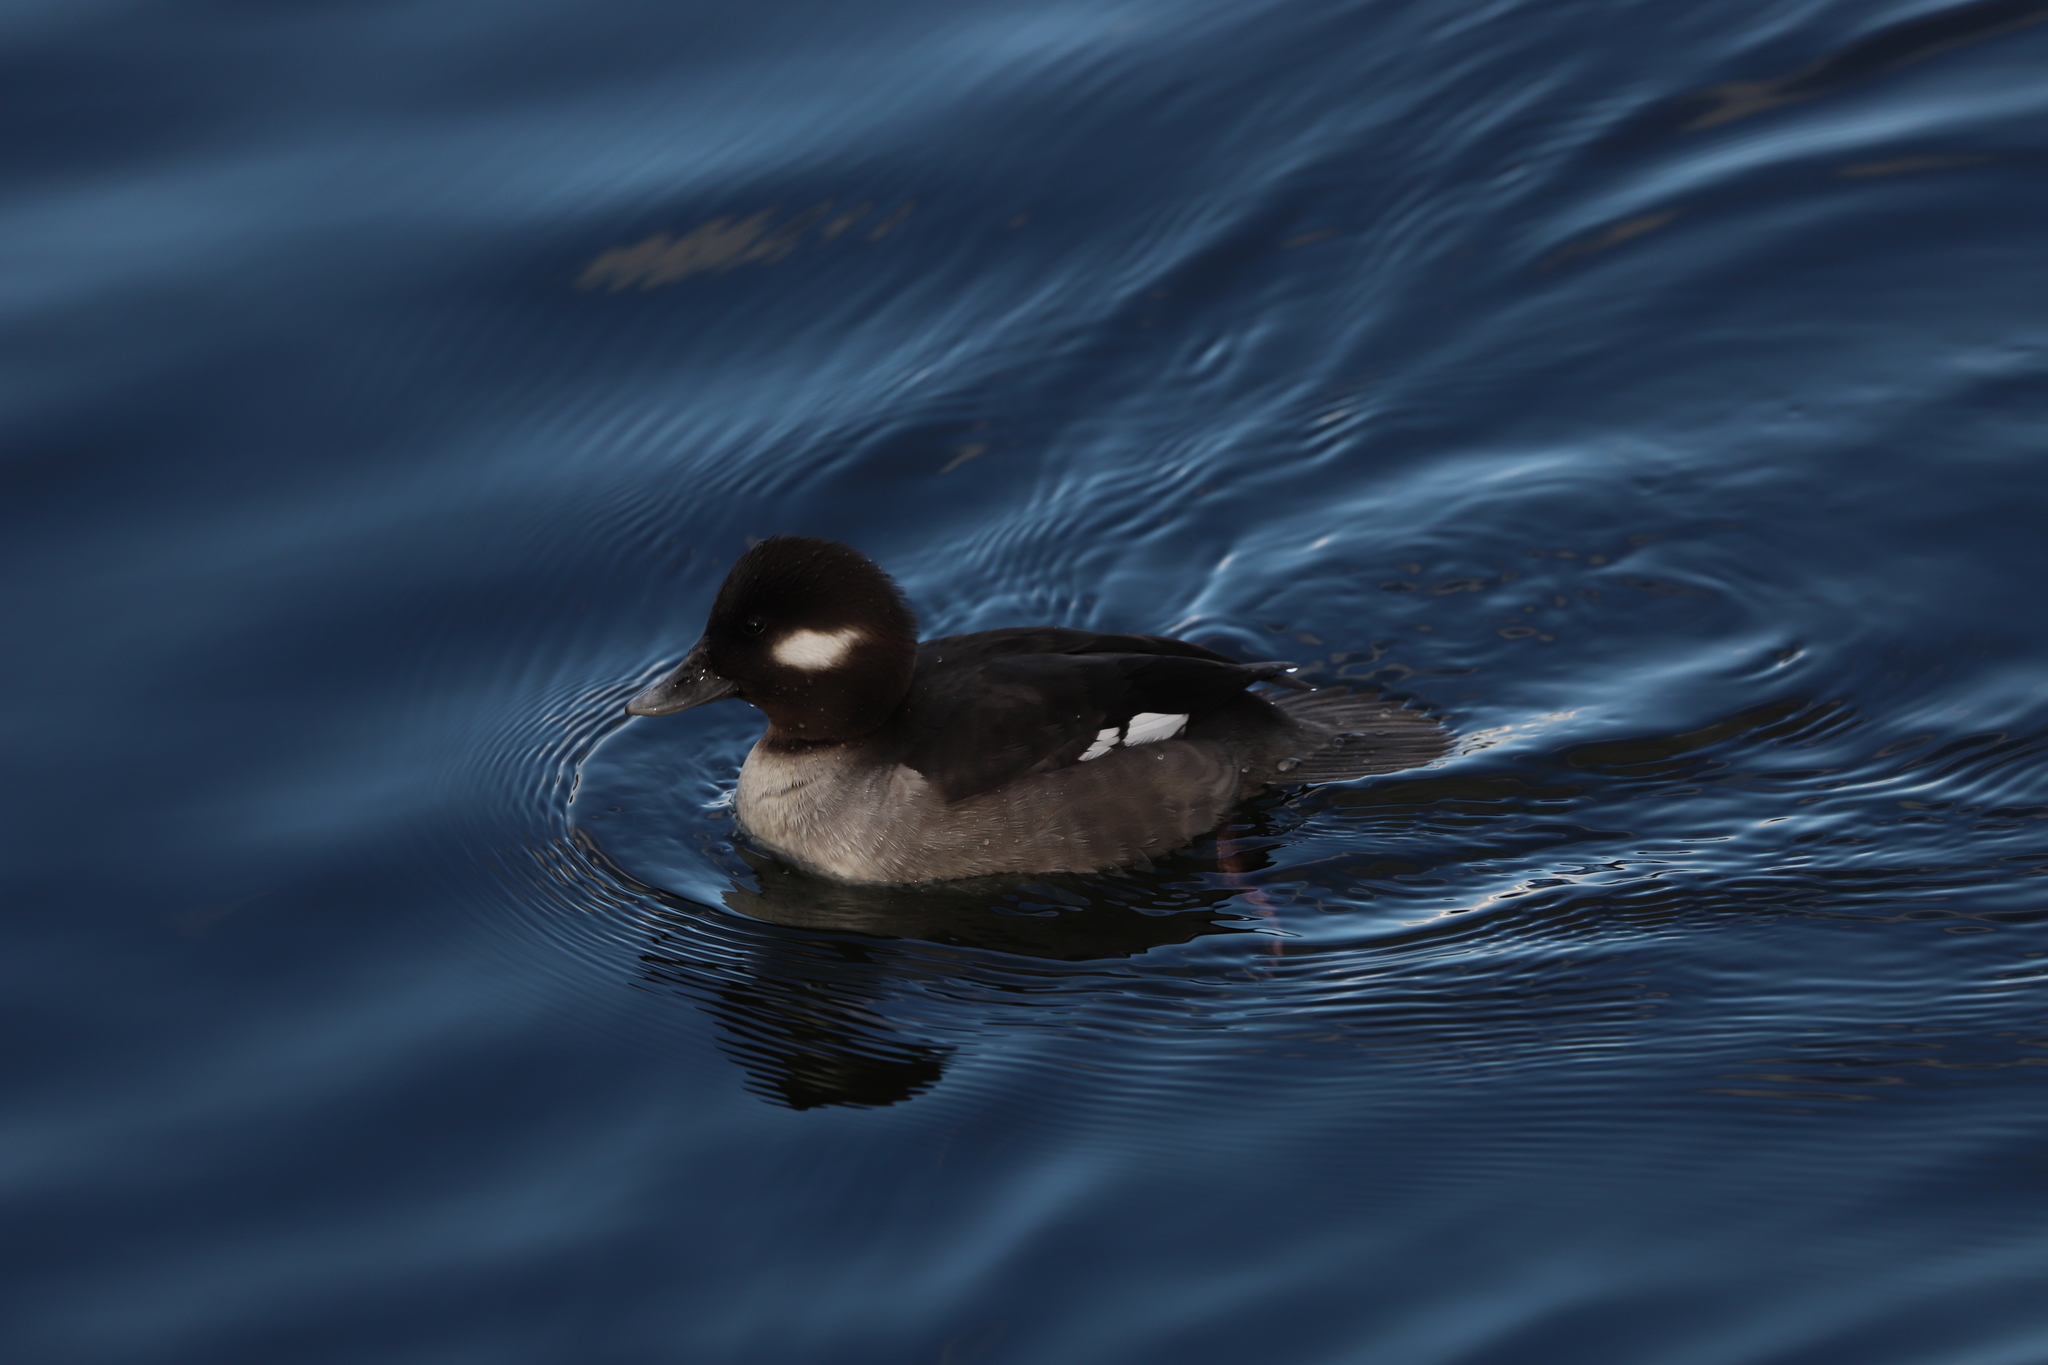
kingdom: Animalia
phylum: Chordata
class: Aves
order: Anseriformes
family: Anatidae
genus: Bucephala
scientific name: Bucephala albeola
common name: Bufflehead
